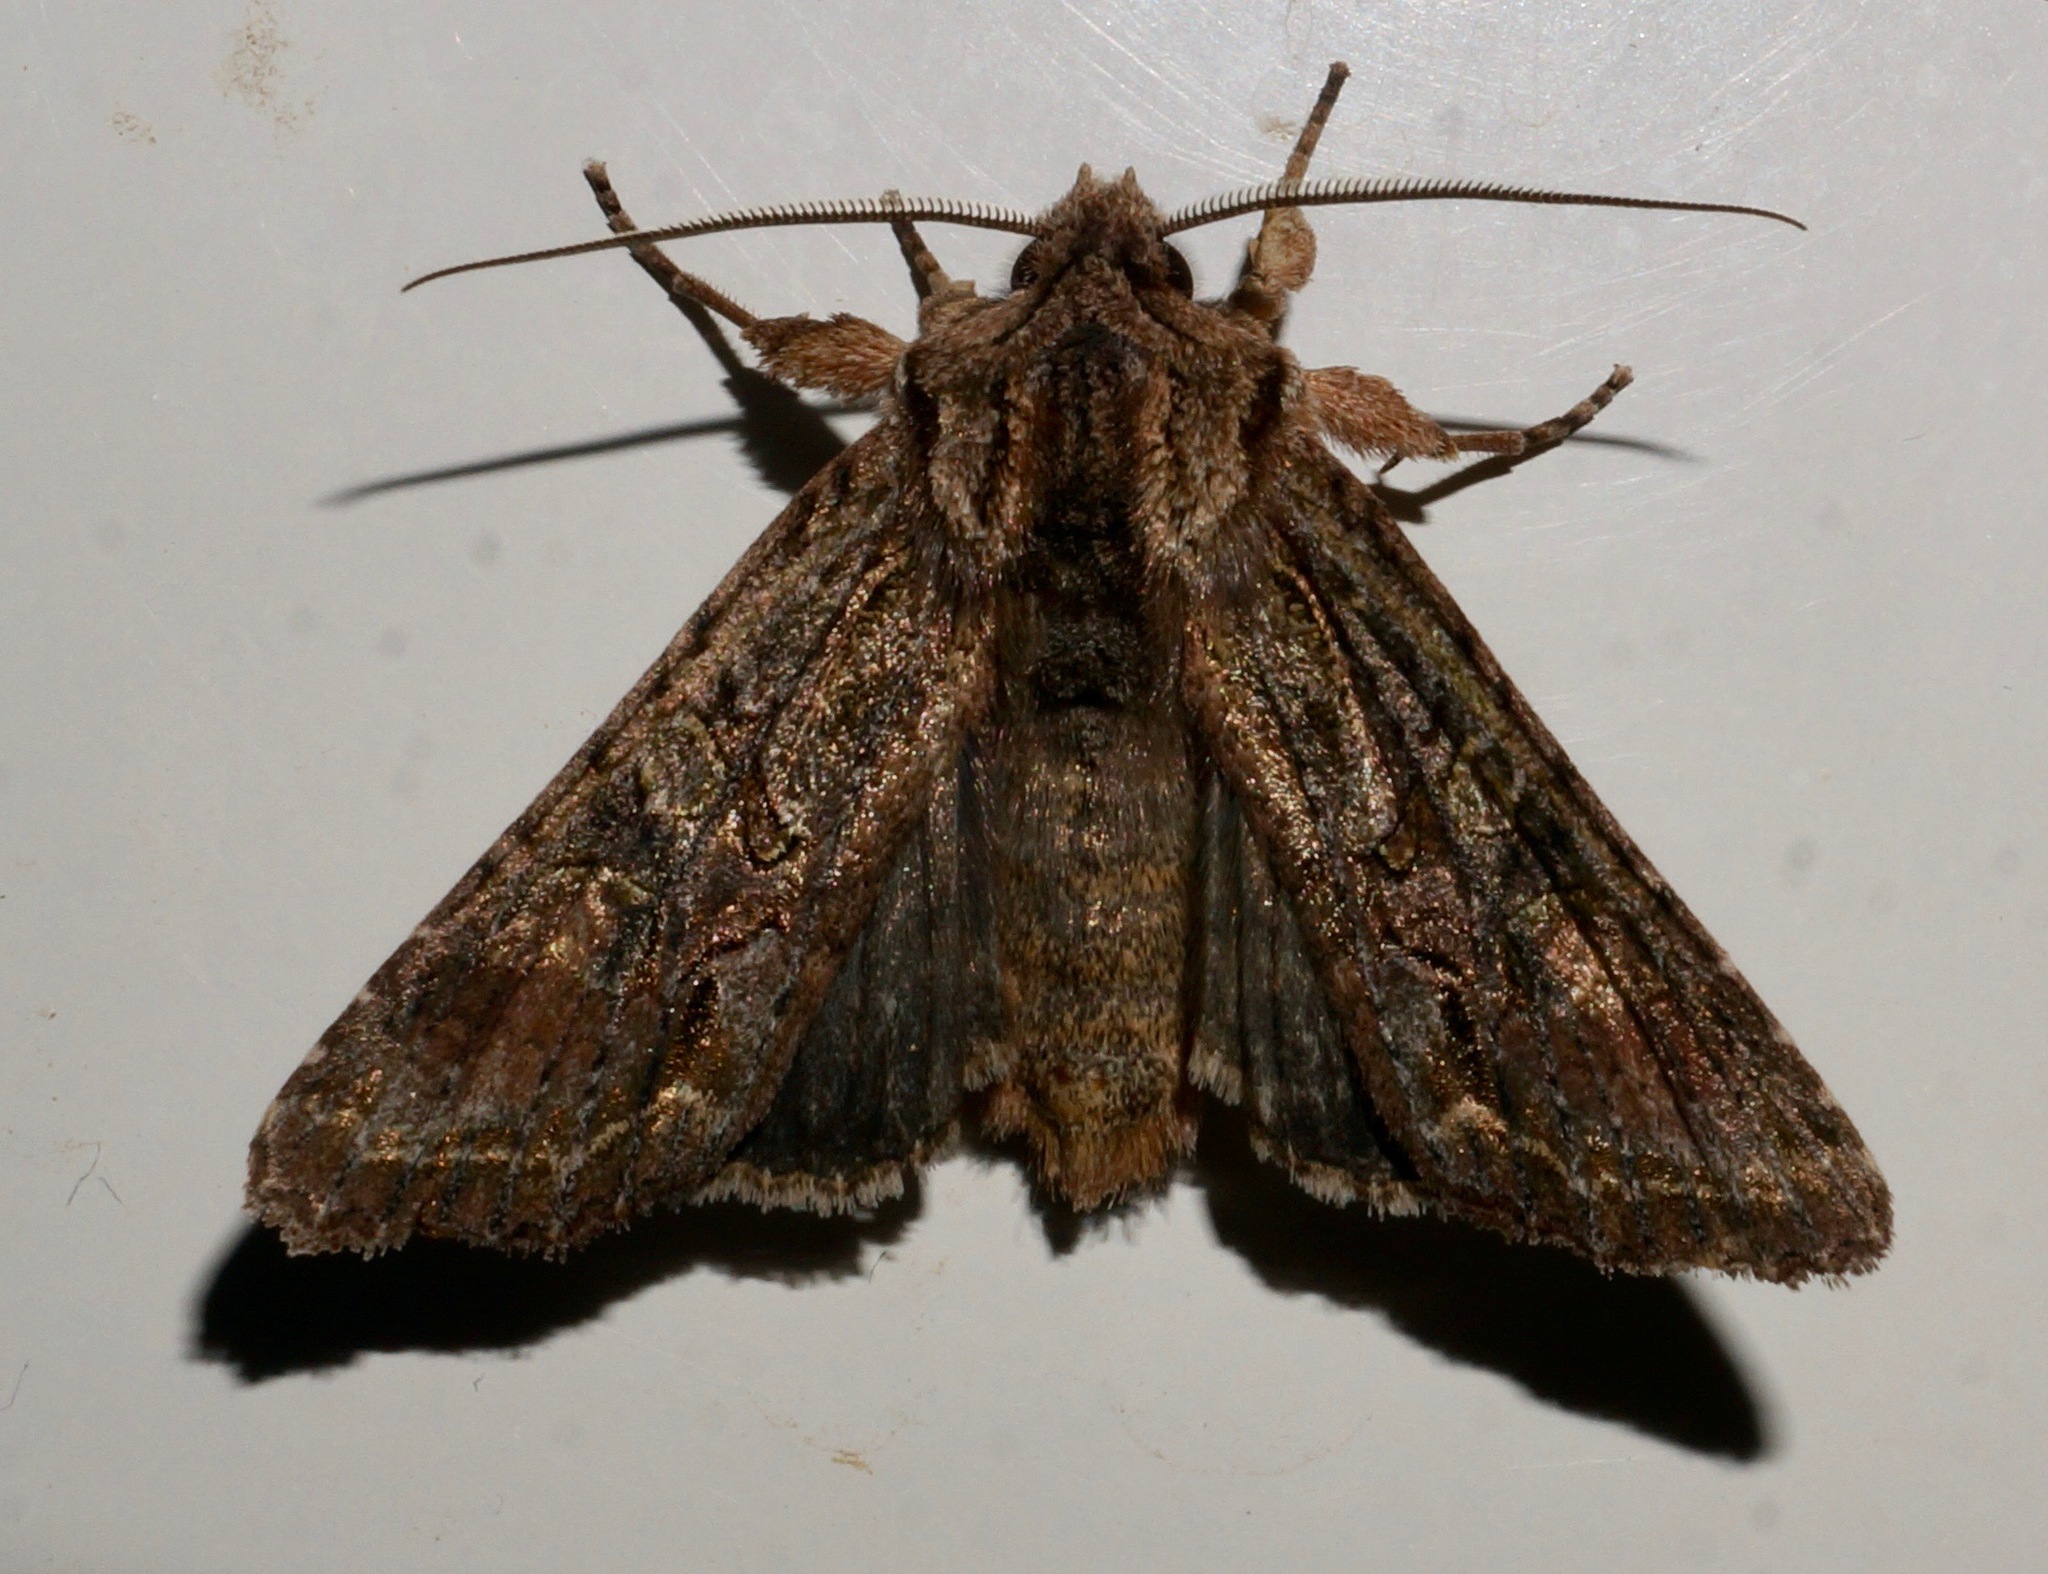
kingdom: Animalia
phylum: Arthropoda
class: Insecta
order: Lepidoptera
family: Noctuidae
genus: Ichneutica
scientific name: Ichneutica mutans
